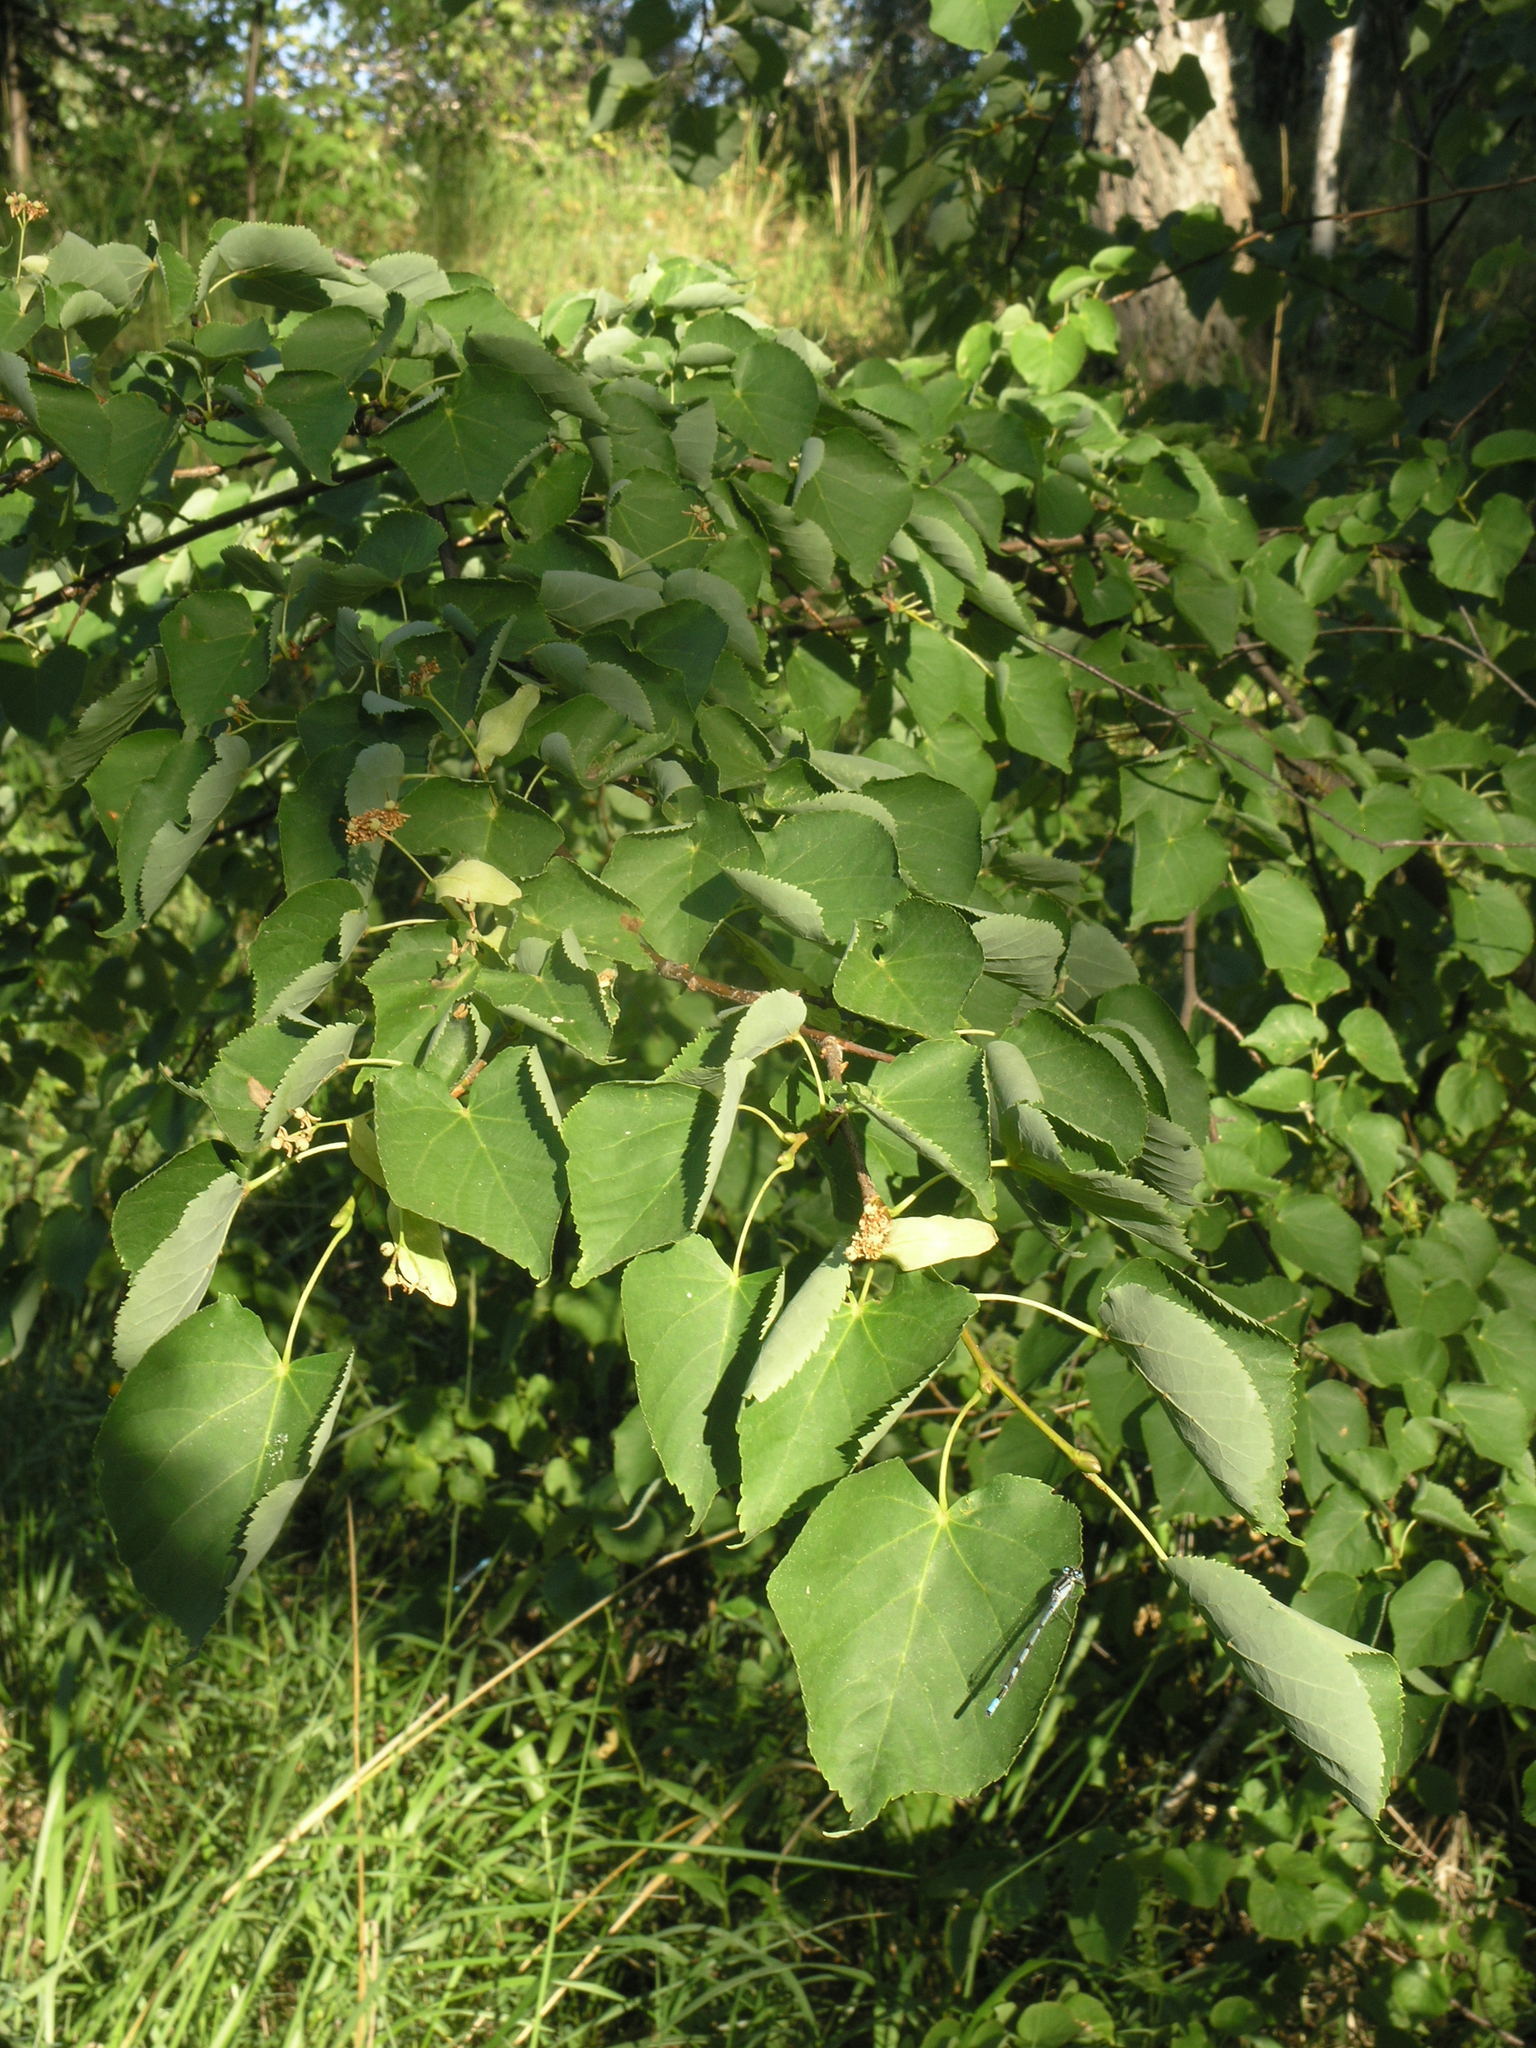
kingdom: Plantae
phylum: Tracheophyta
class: Magnoliopsida
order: Malvales
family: Malvaceae
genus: Tilia
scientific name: Tilia cordata
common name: Small-leaved lime
